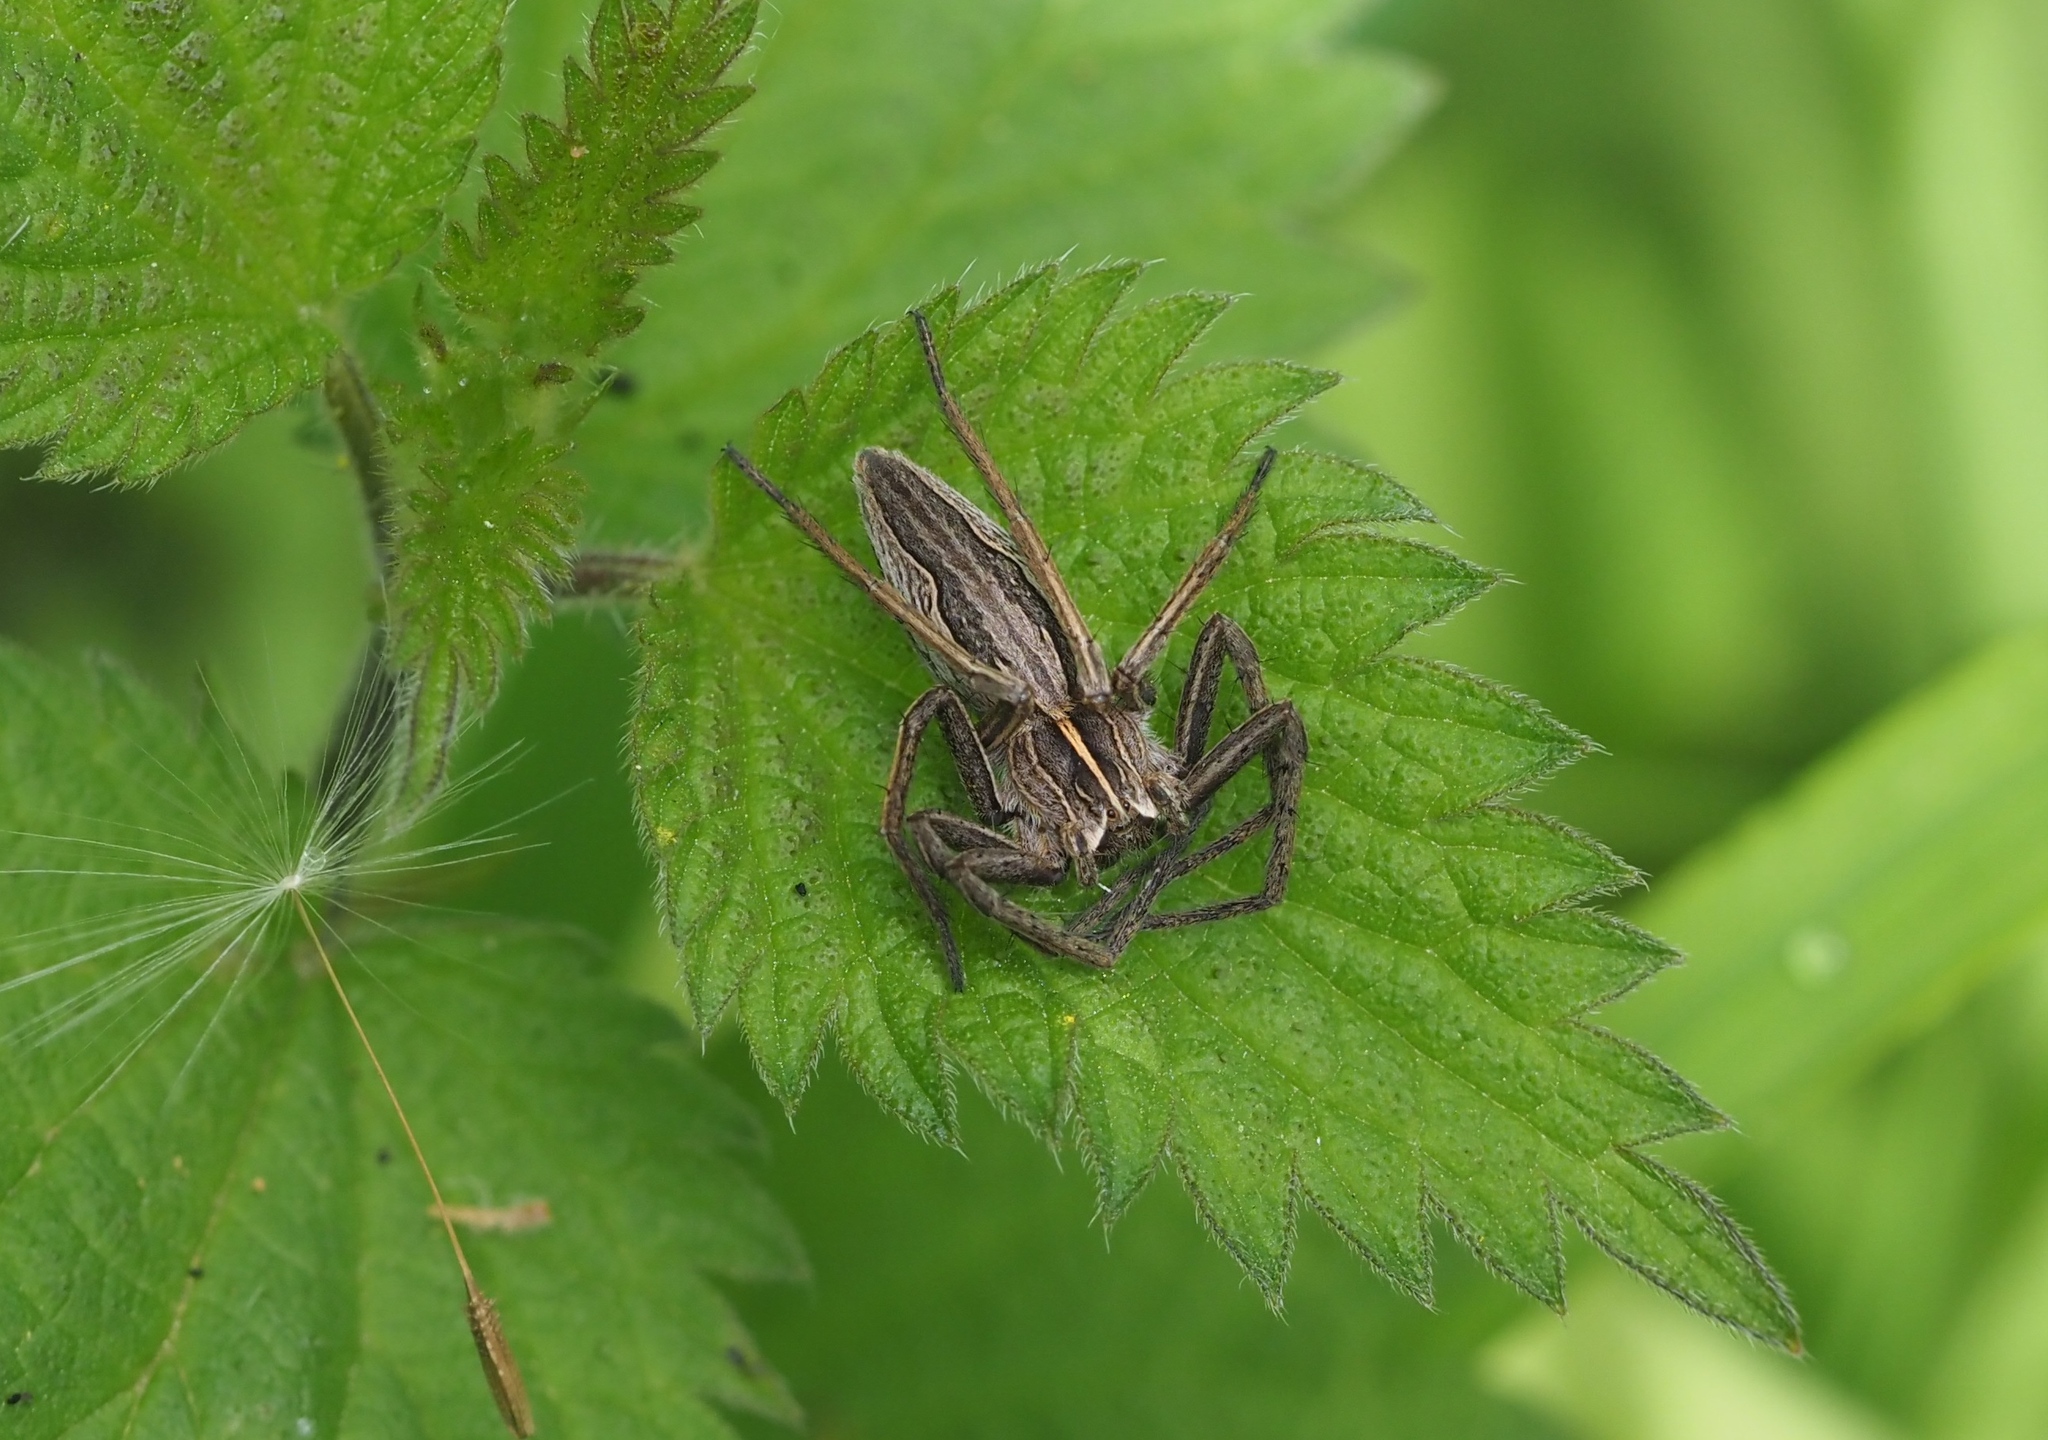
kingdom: Animalia
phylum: Arthropoda
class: Arachnida
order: Araneae
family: Pisauridae
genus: Pisaura
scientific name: Pisaura mirabilis
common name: Tent spider
